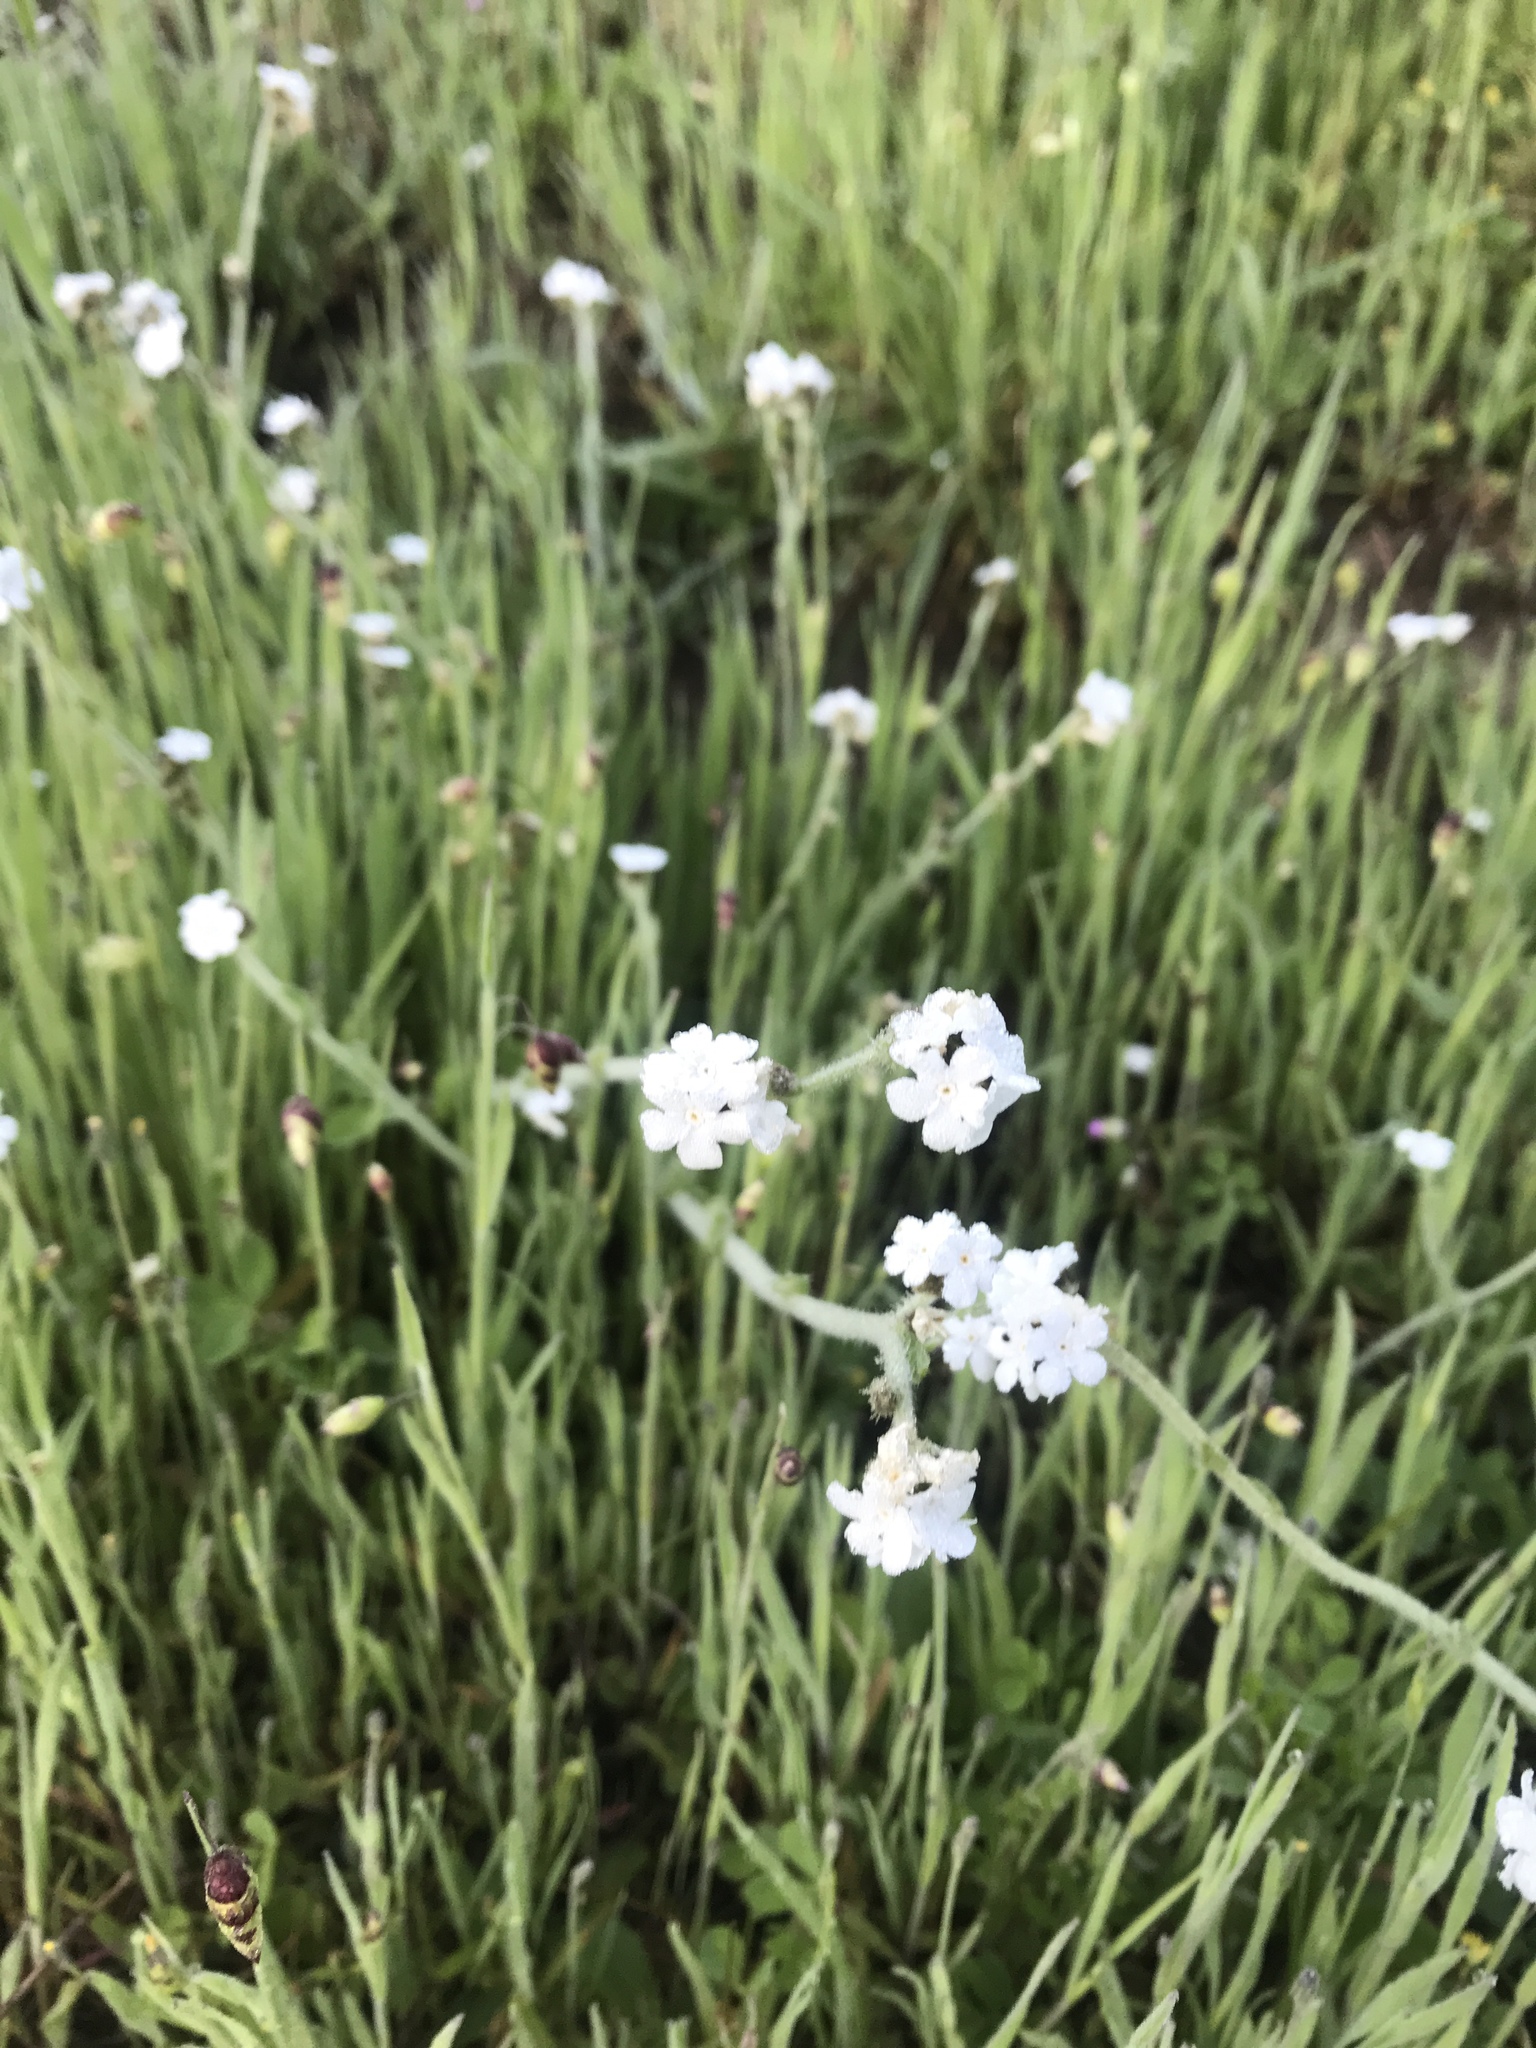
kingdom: Plantae
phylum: Tracheophyta
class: Magnoliopsida
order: Boraginales
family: Boraginaceae
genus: Plagiobothrys
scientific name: Plagiobothrys nothofulvus
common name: Popcorn-flower
